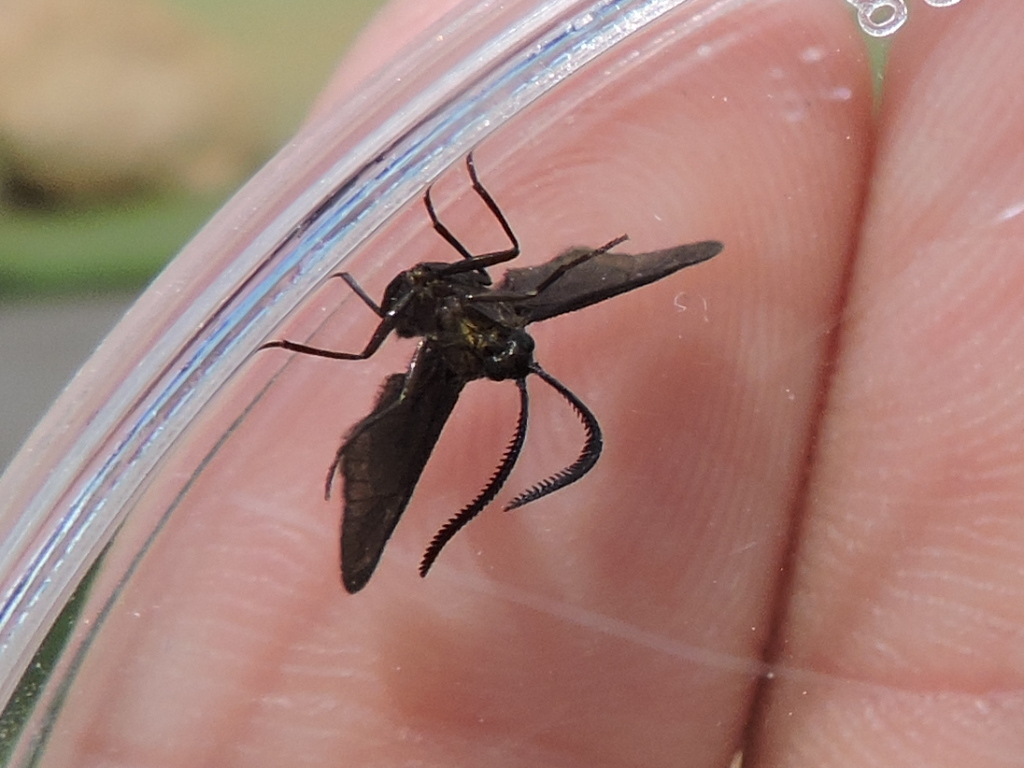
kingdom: Animalia
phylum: Arthropoda
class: Insecta
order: Lepidoptera
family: Zygaenidae
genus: Harrisina
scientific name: Harrisina metallica
